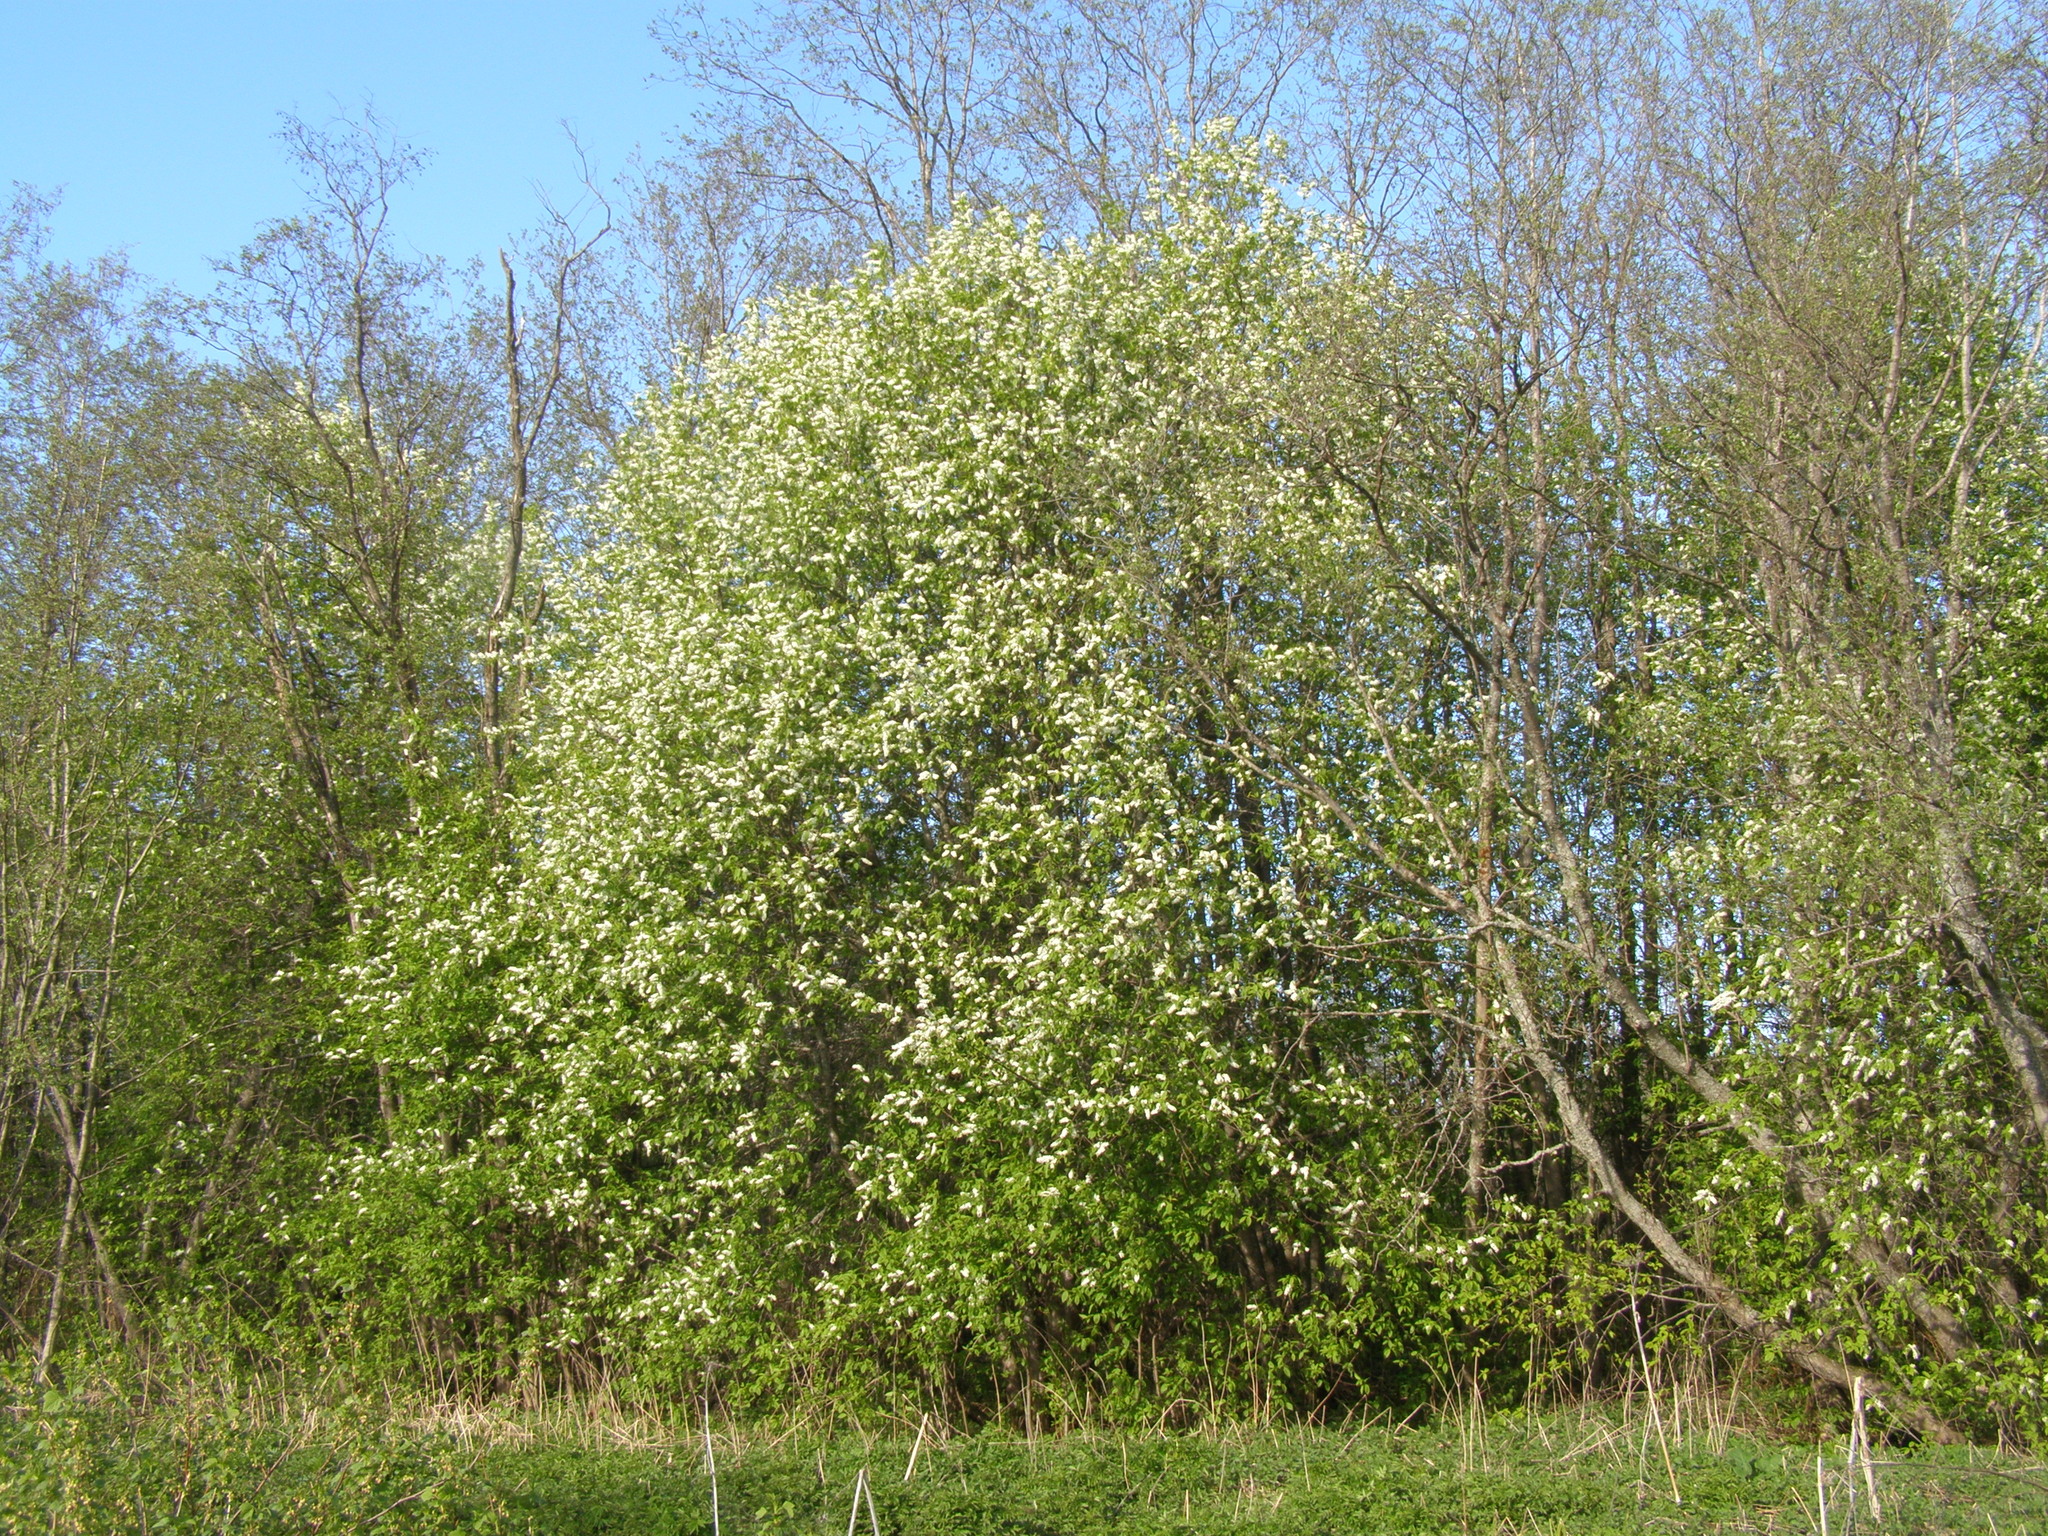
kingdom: Plantae
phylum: Tracheophyta
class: Magnoliopsida
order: Rosales
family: Rosaceae
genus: Prunus
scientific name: Prunus padus
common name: Bird cherry
